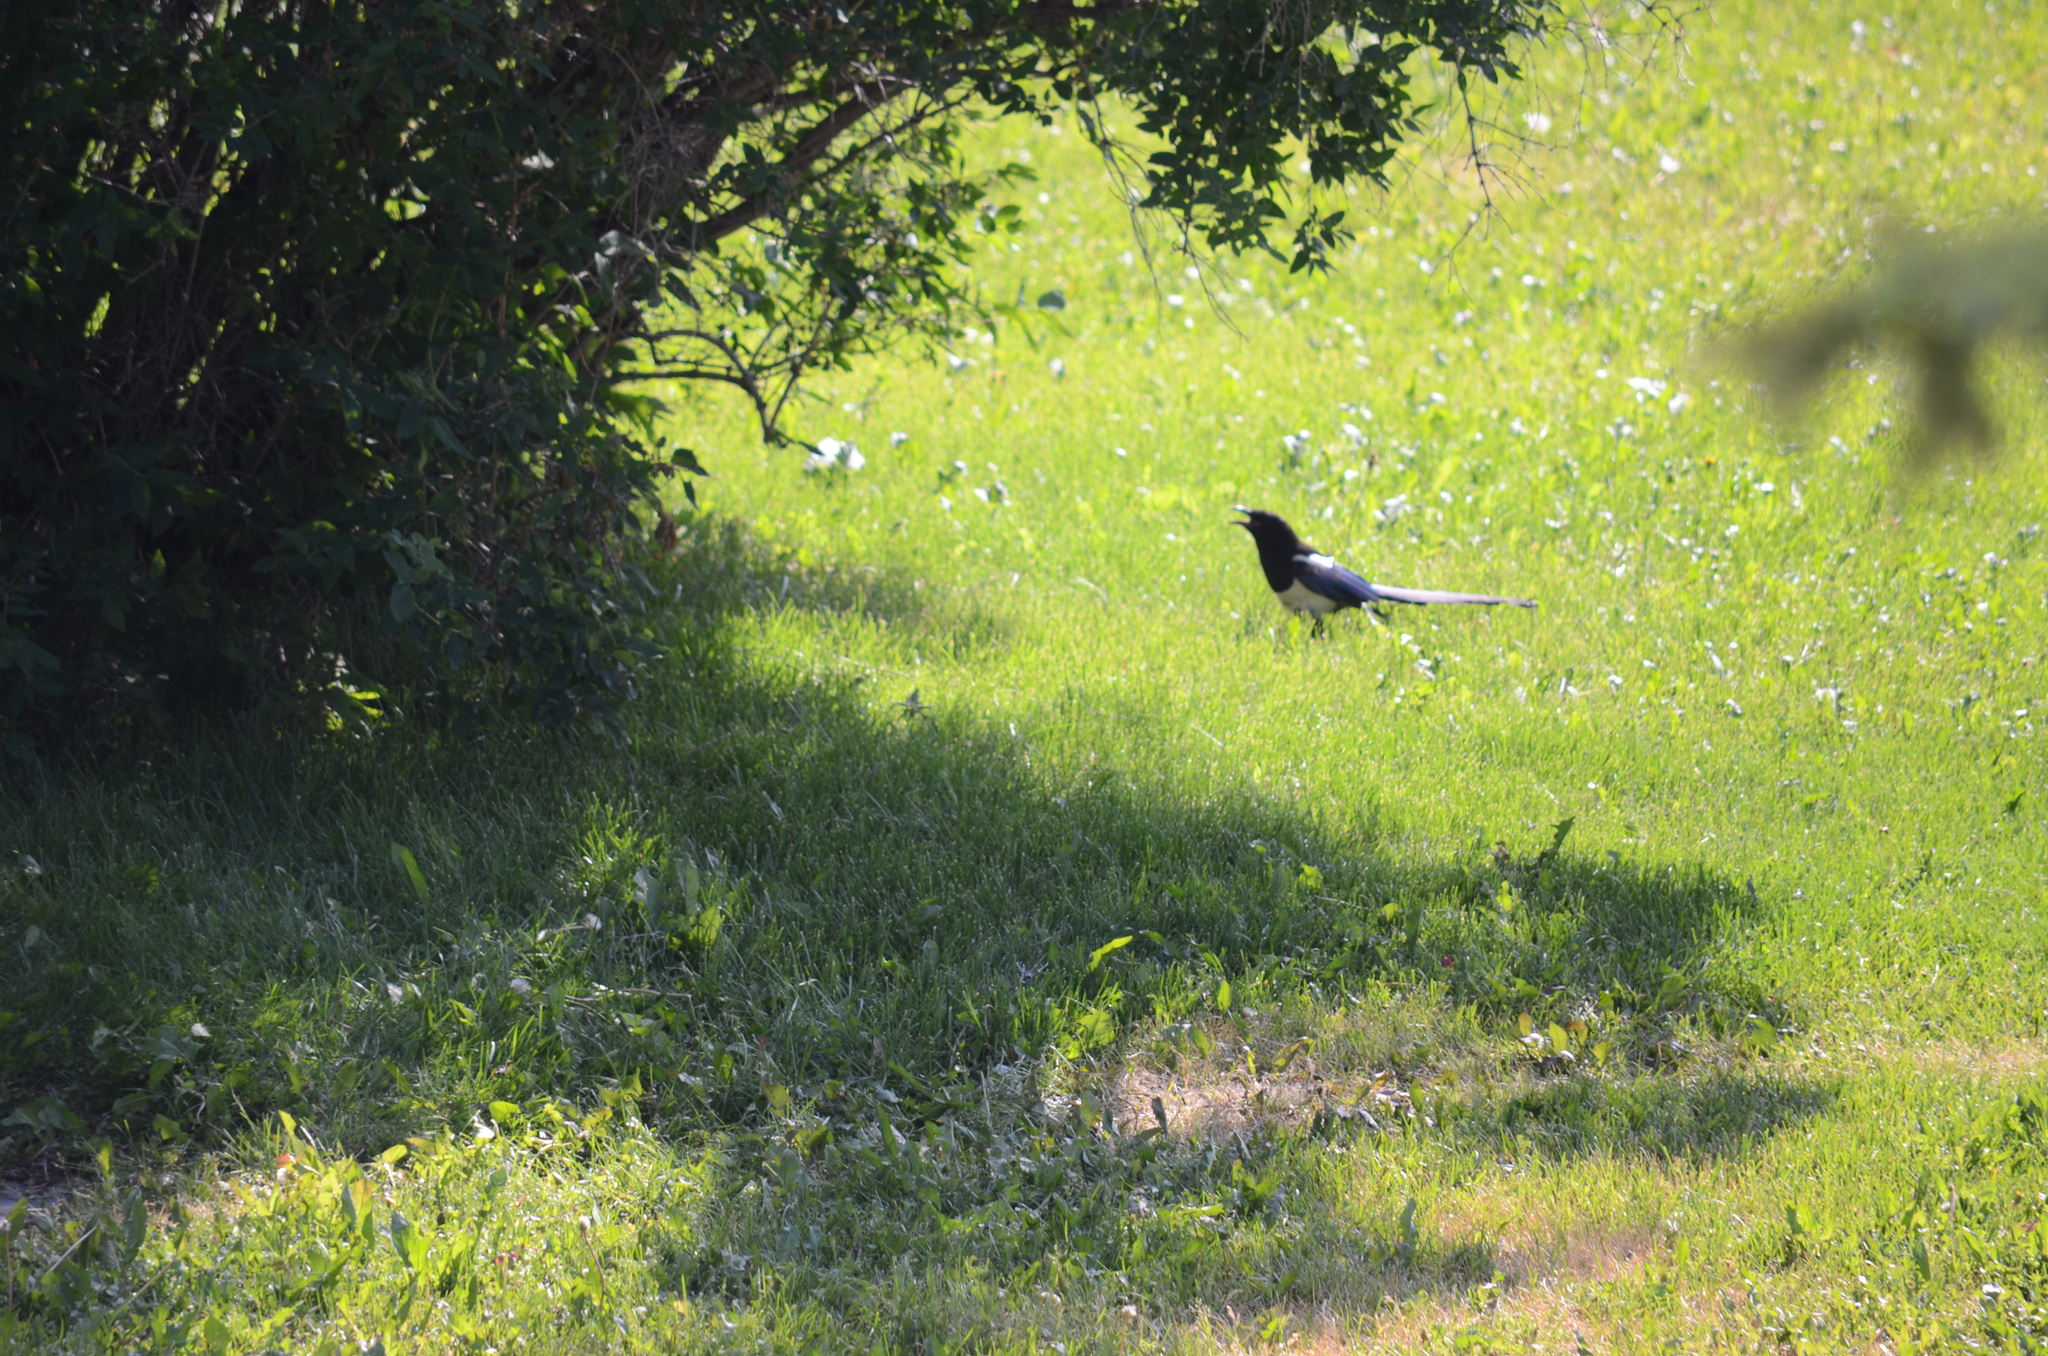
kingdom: Animalia
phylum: Chordata
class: Aves
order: Passeriformes
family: Corvidae
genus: Pica
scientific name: Pica hudsonia
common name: Black-billed magpie
